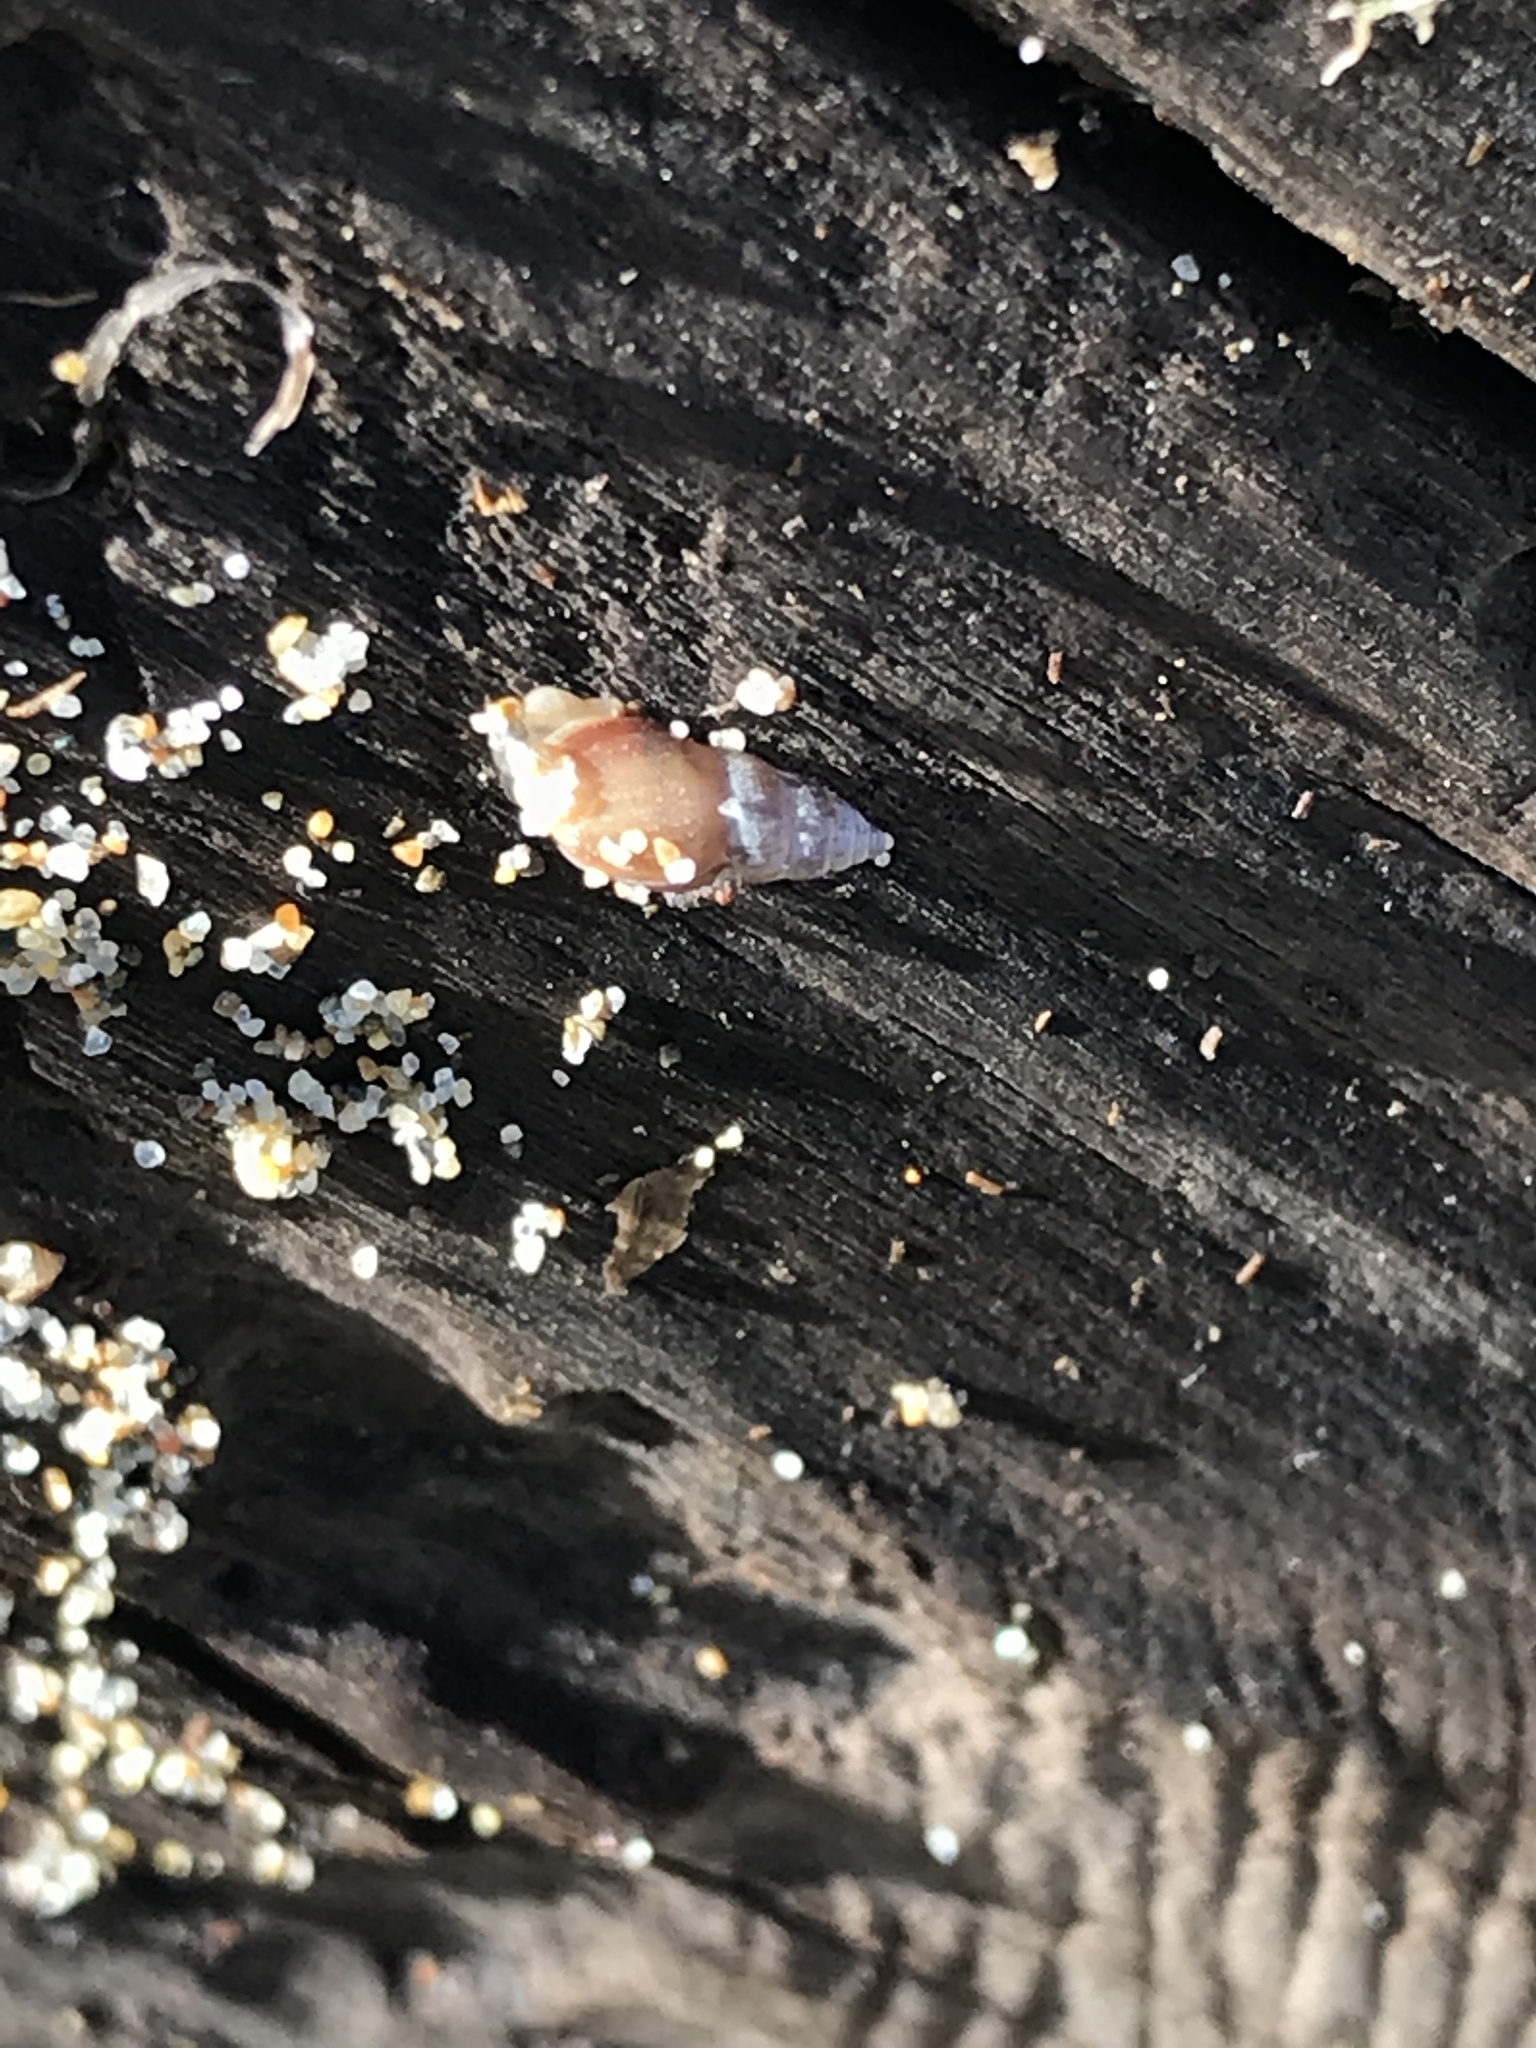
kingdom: Animalia
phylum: Mollusca
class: Gastropoda
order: Ellobiida
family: Ellobiidae
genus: Myosotella
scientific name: Myosotella myosotis
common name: Mouse-eared snail
